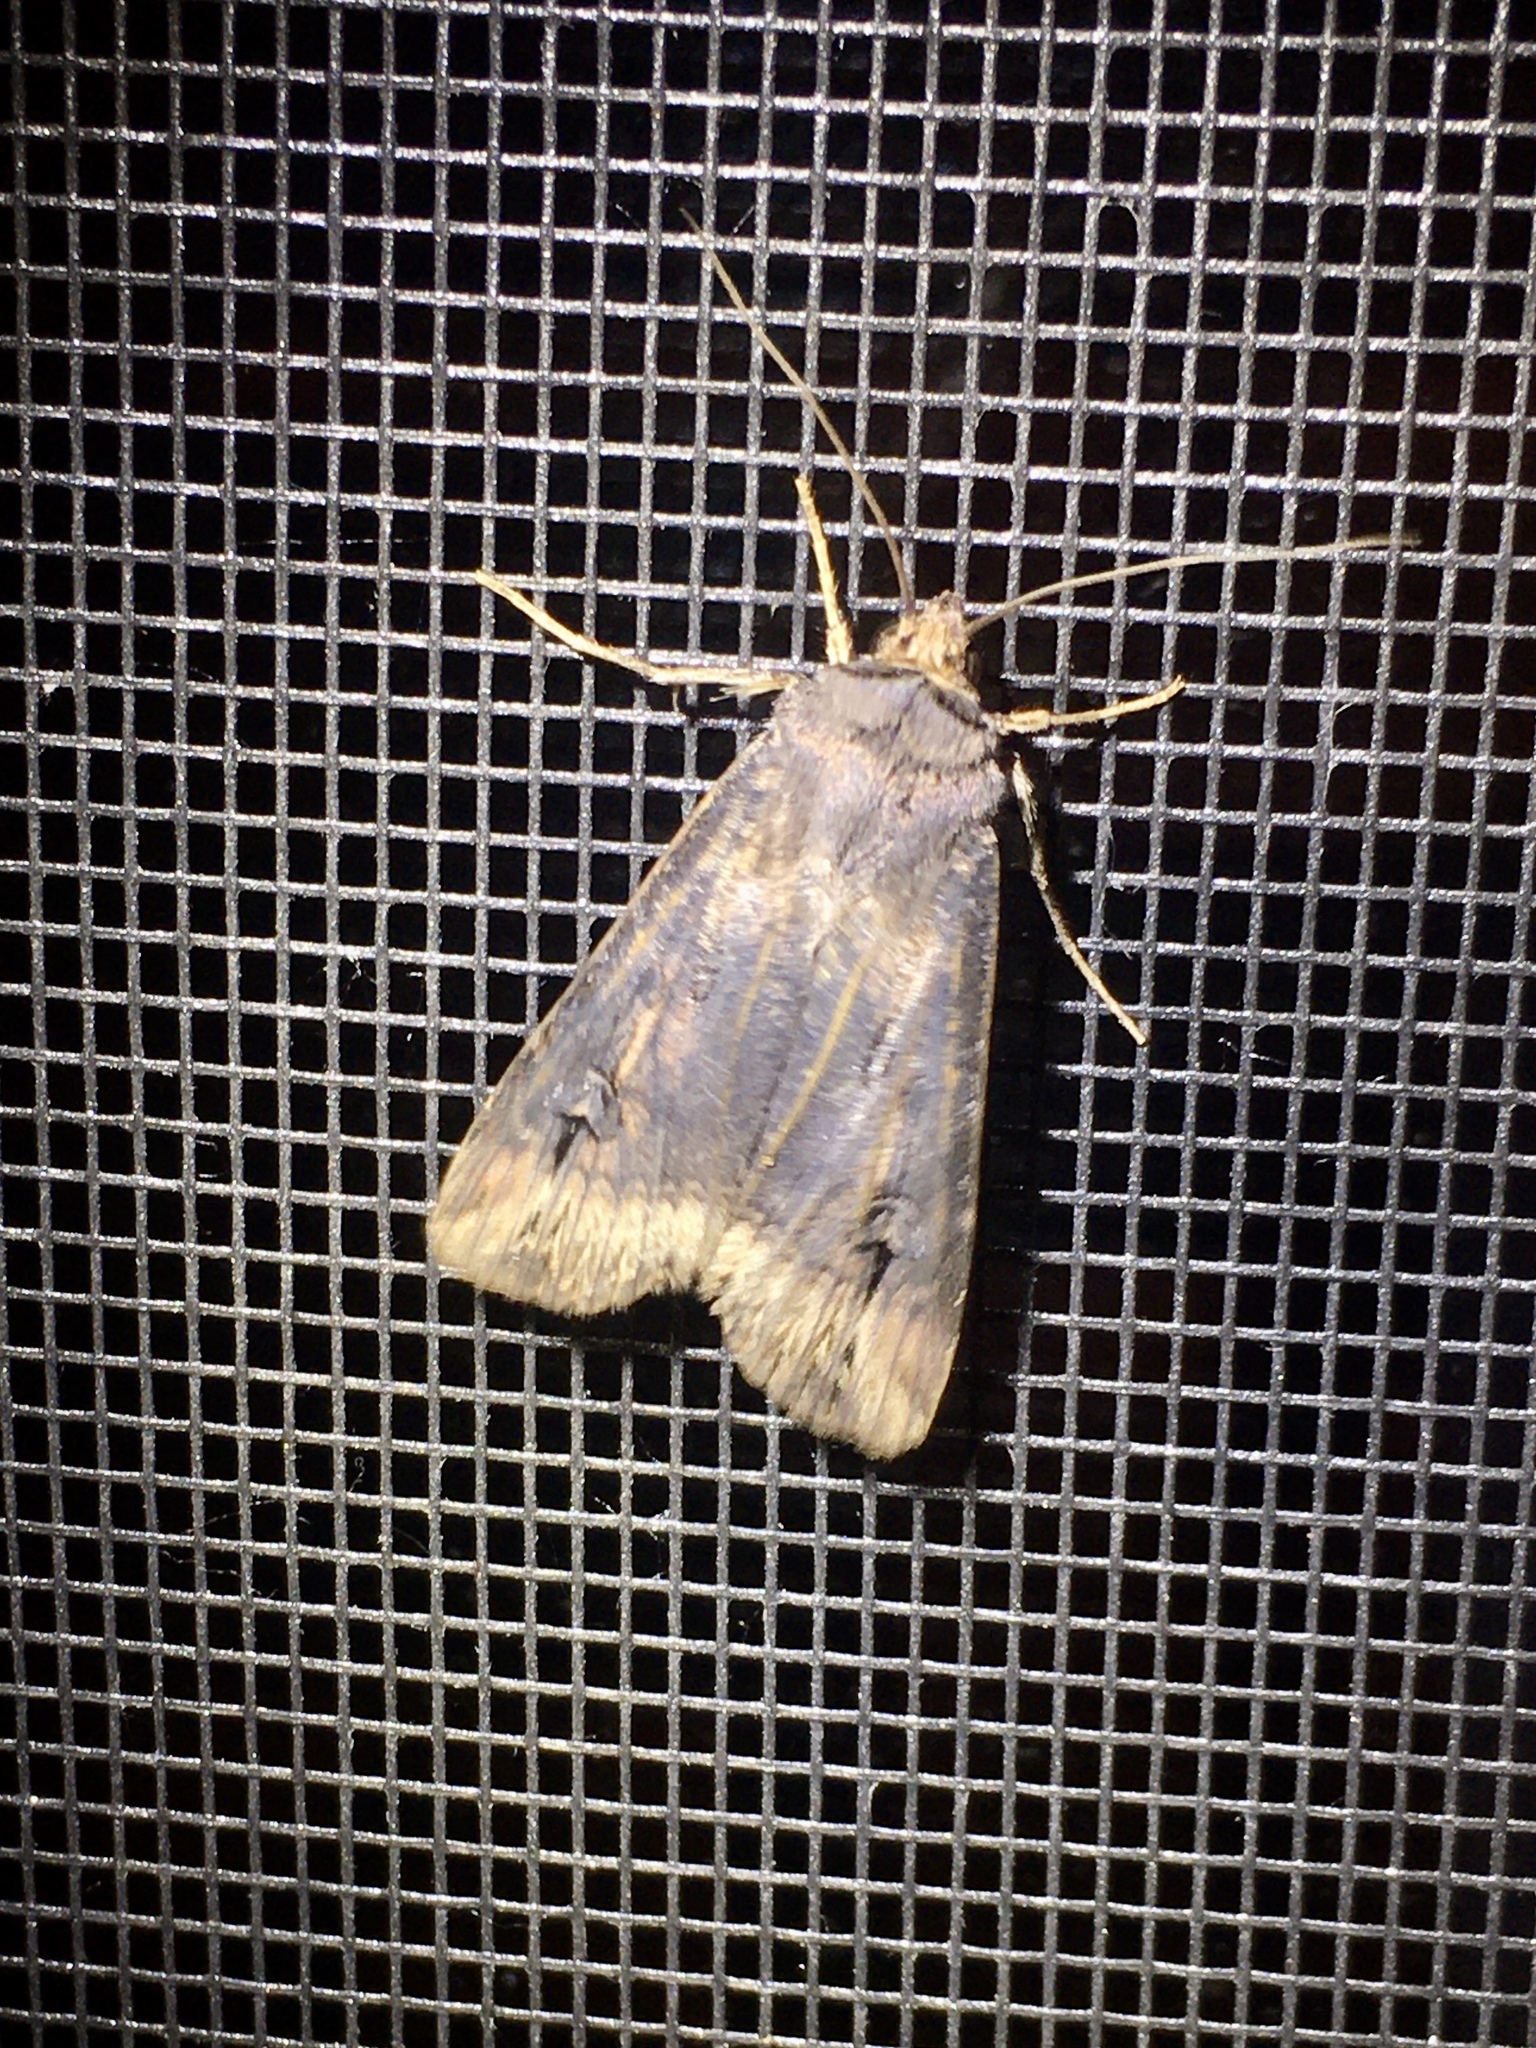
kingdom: Animalia
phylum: Arthropoda
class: Insecta
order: Lepidoptera
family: Noctuidae
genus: Agrotis
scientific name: Agrotis ipsilon
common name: Dark sword-grass
